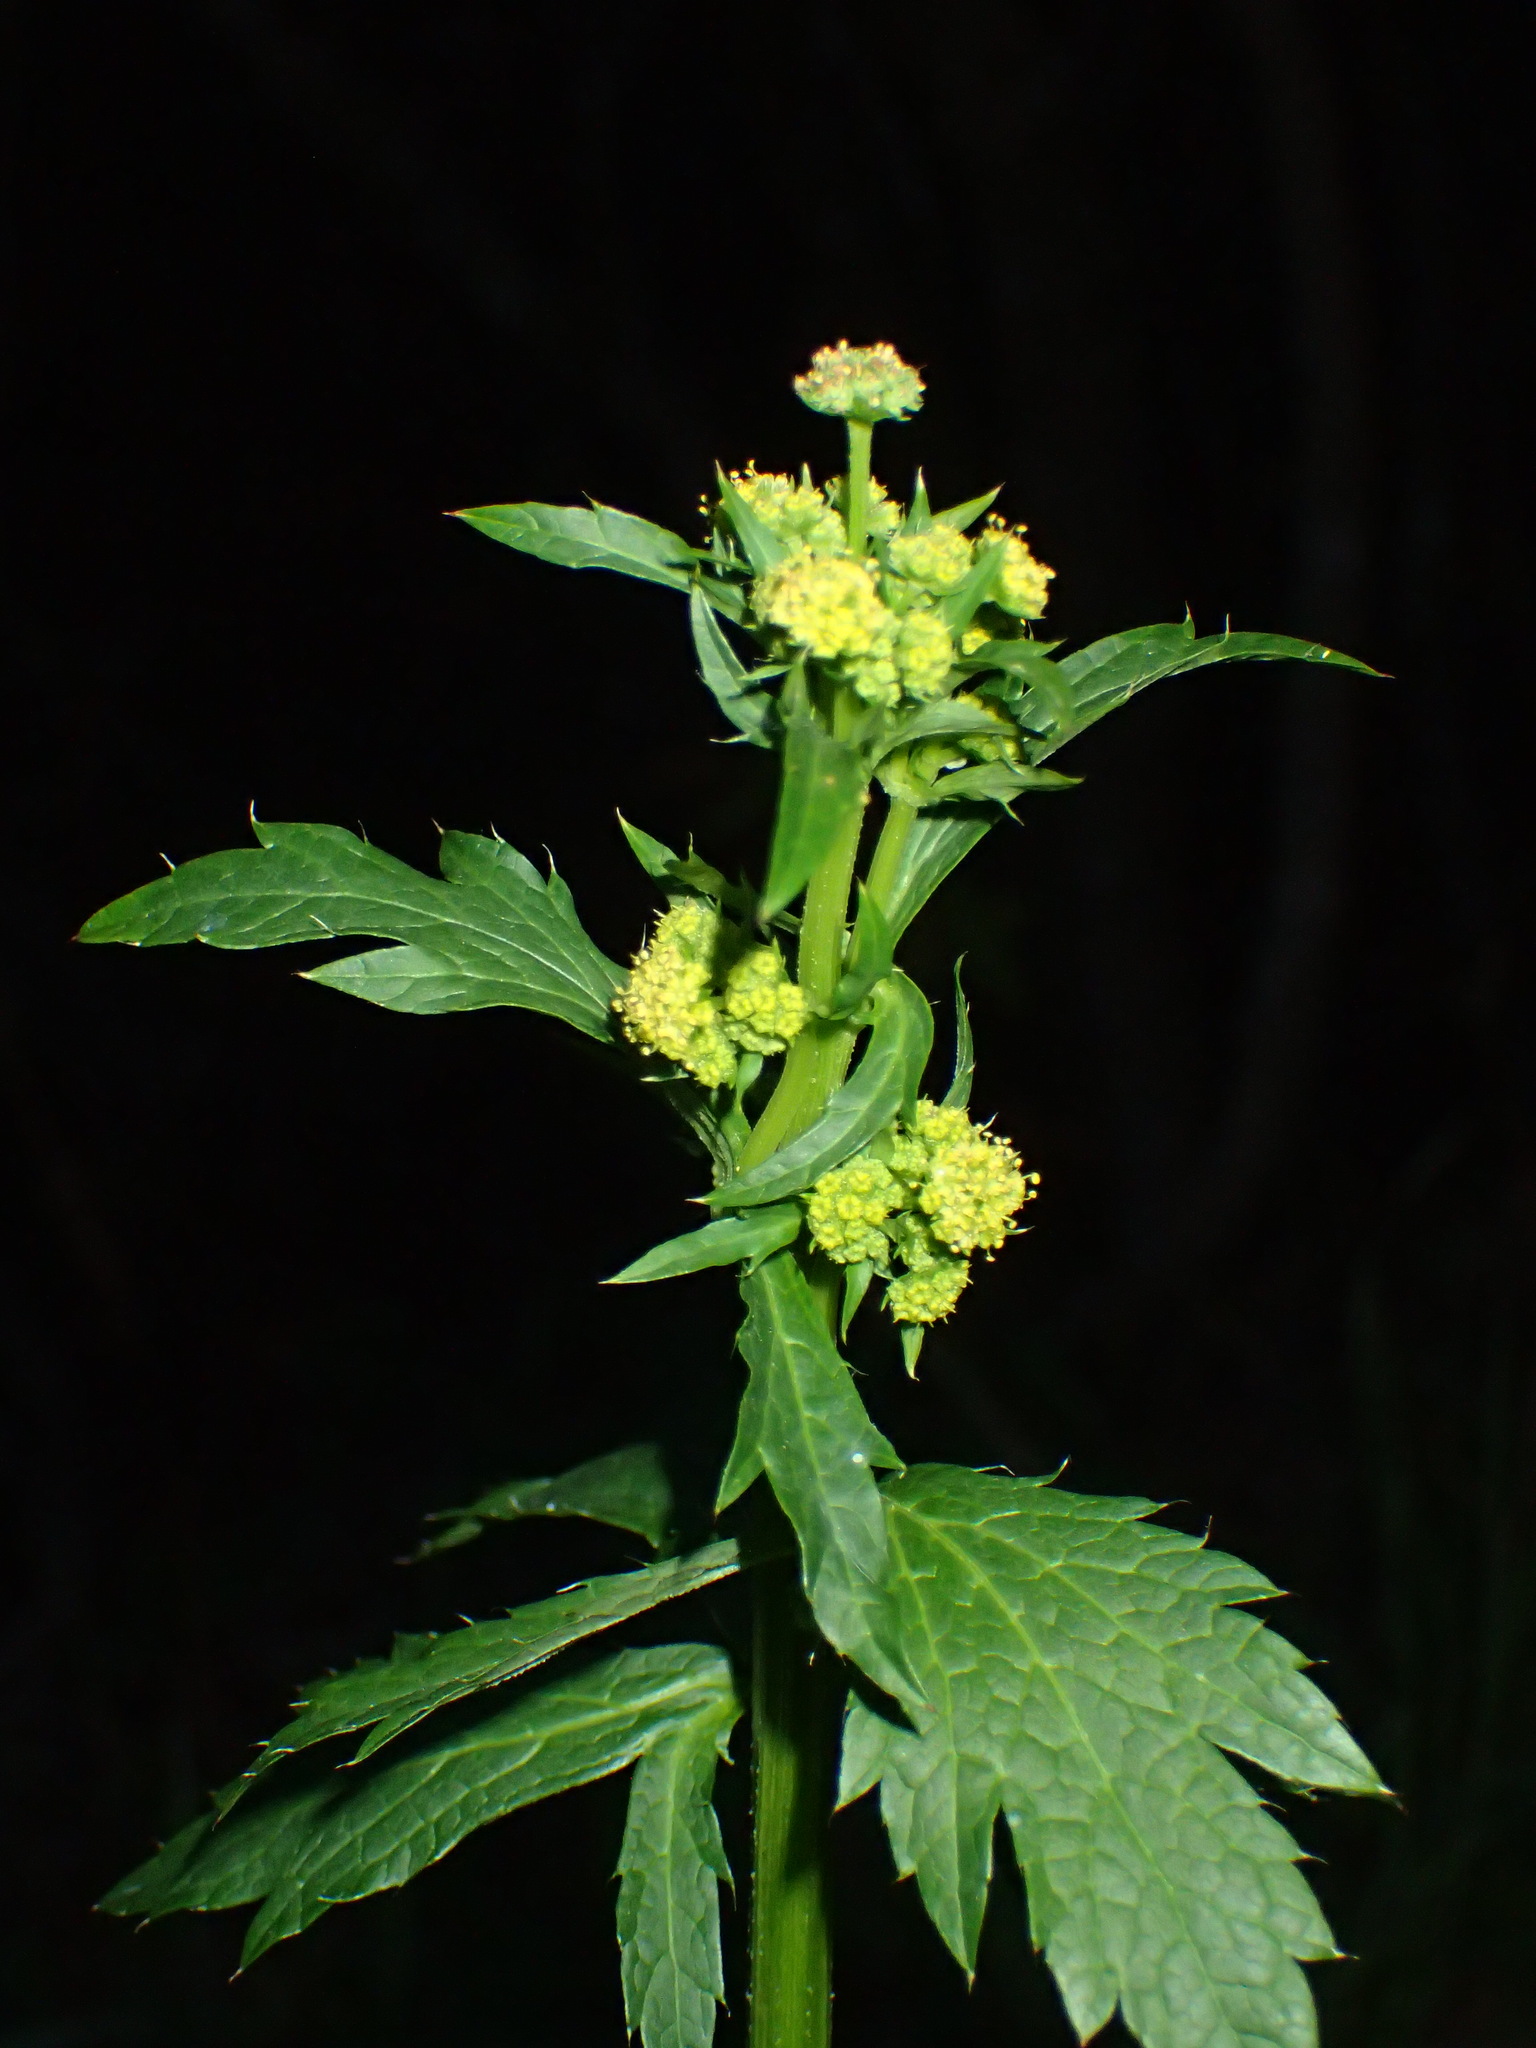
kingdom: Plantae
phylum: Tracheophyta
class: Magnoliopsida
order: Apiales
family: Apiaceae
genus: Sanicula
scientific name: Sanicula crassicaulis
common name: Western snakeroot
